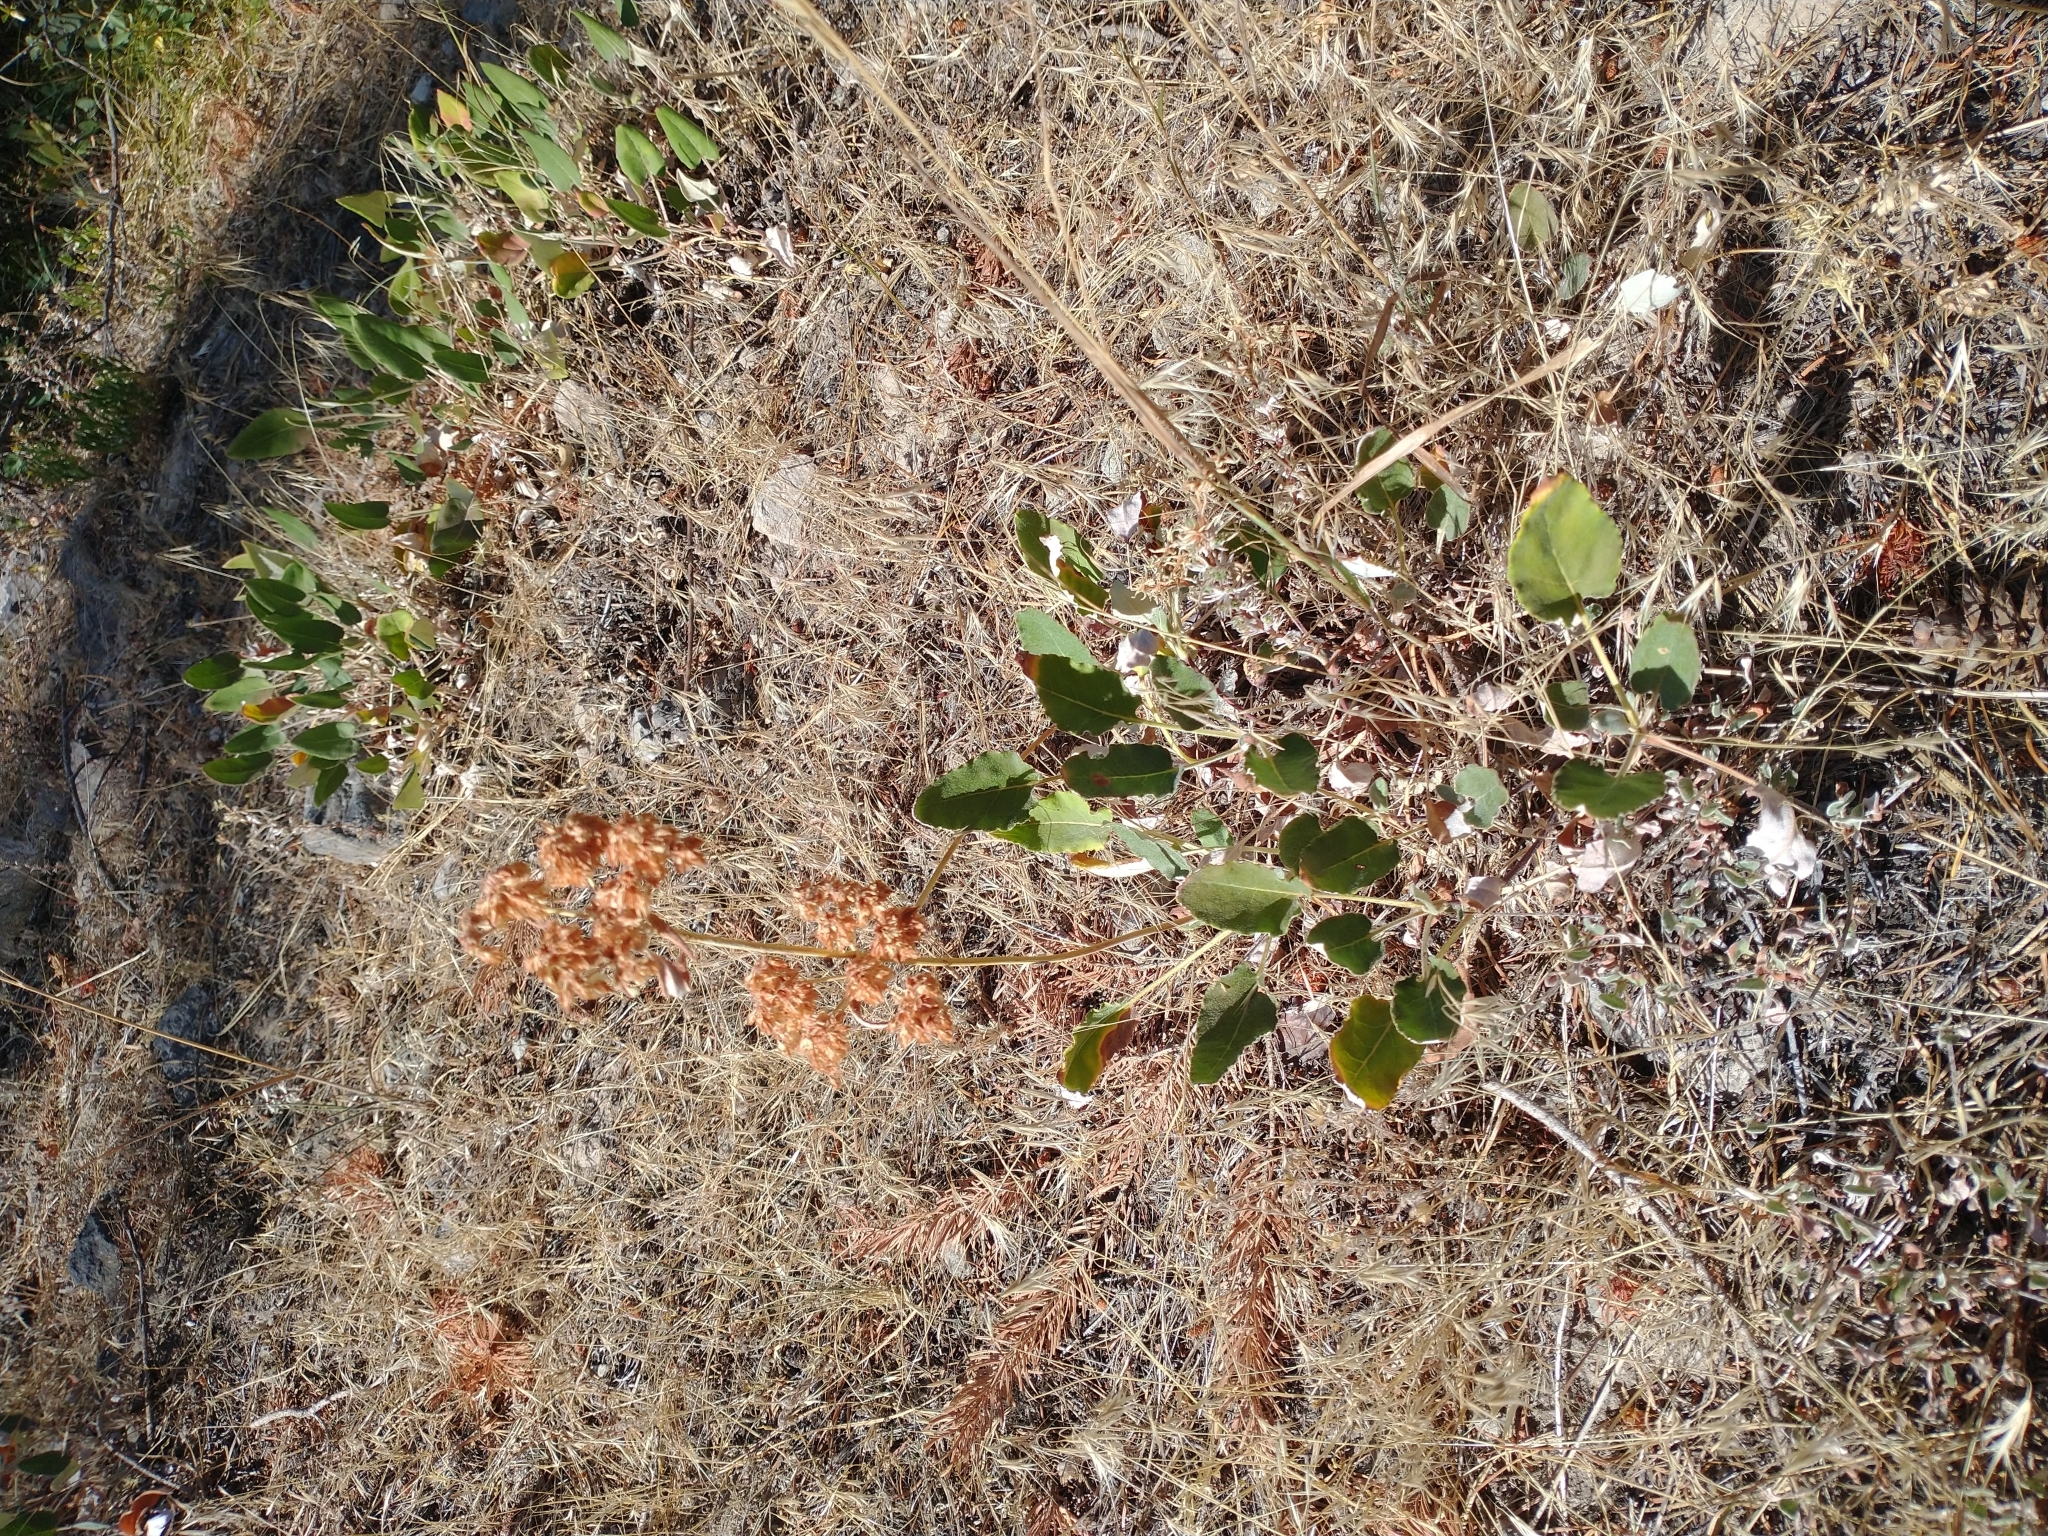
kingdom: Plantae
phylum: Tracheophyta
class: Magnoliopsida
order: Caryophyllales
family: Polygonaceae
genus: Eriogonum
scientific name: Eriogonum compositum
